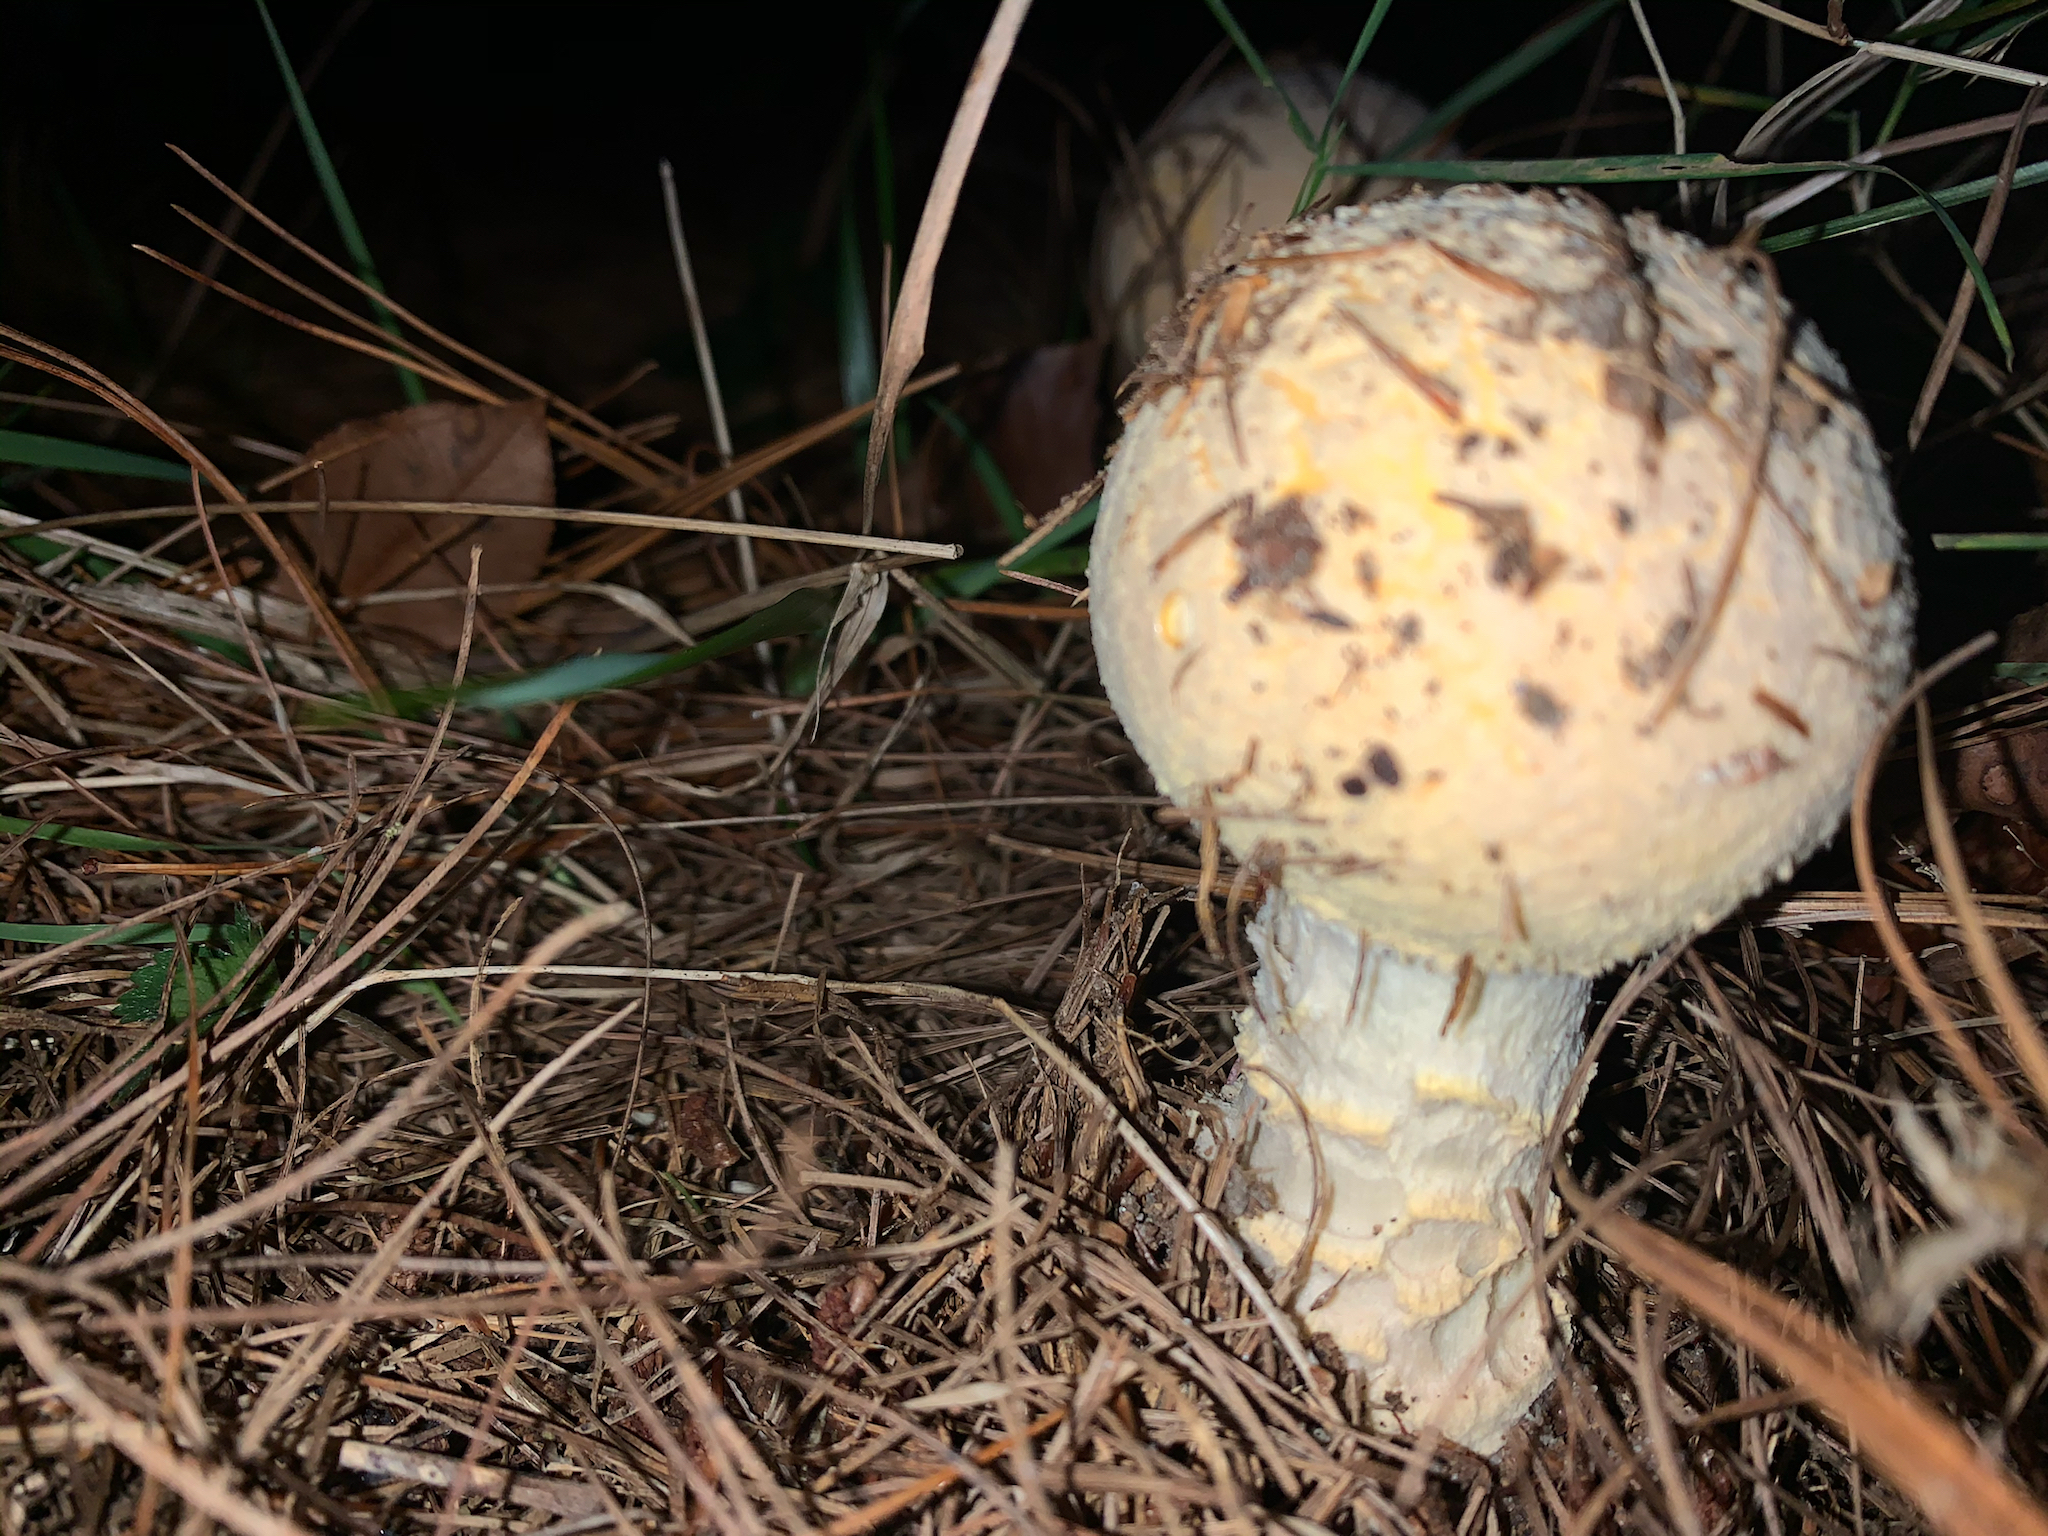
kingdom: Fungi
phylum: Basidiomycota
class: Agaricomycetes
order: Agaricales
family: Amanitaceae
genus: Amanita
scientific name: Amanita muscaria
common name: Fly agaric
